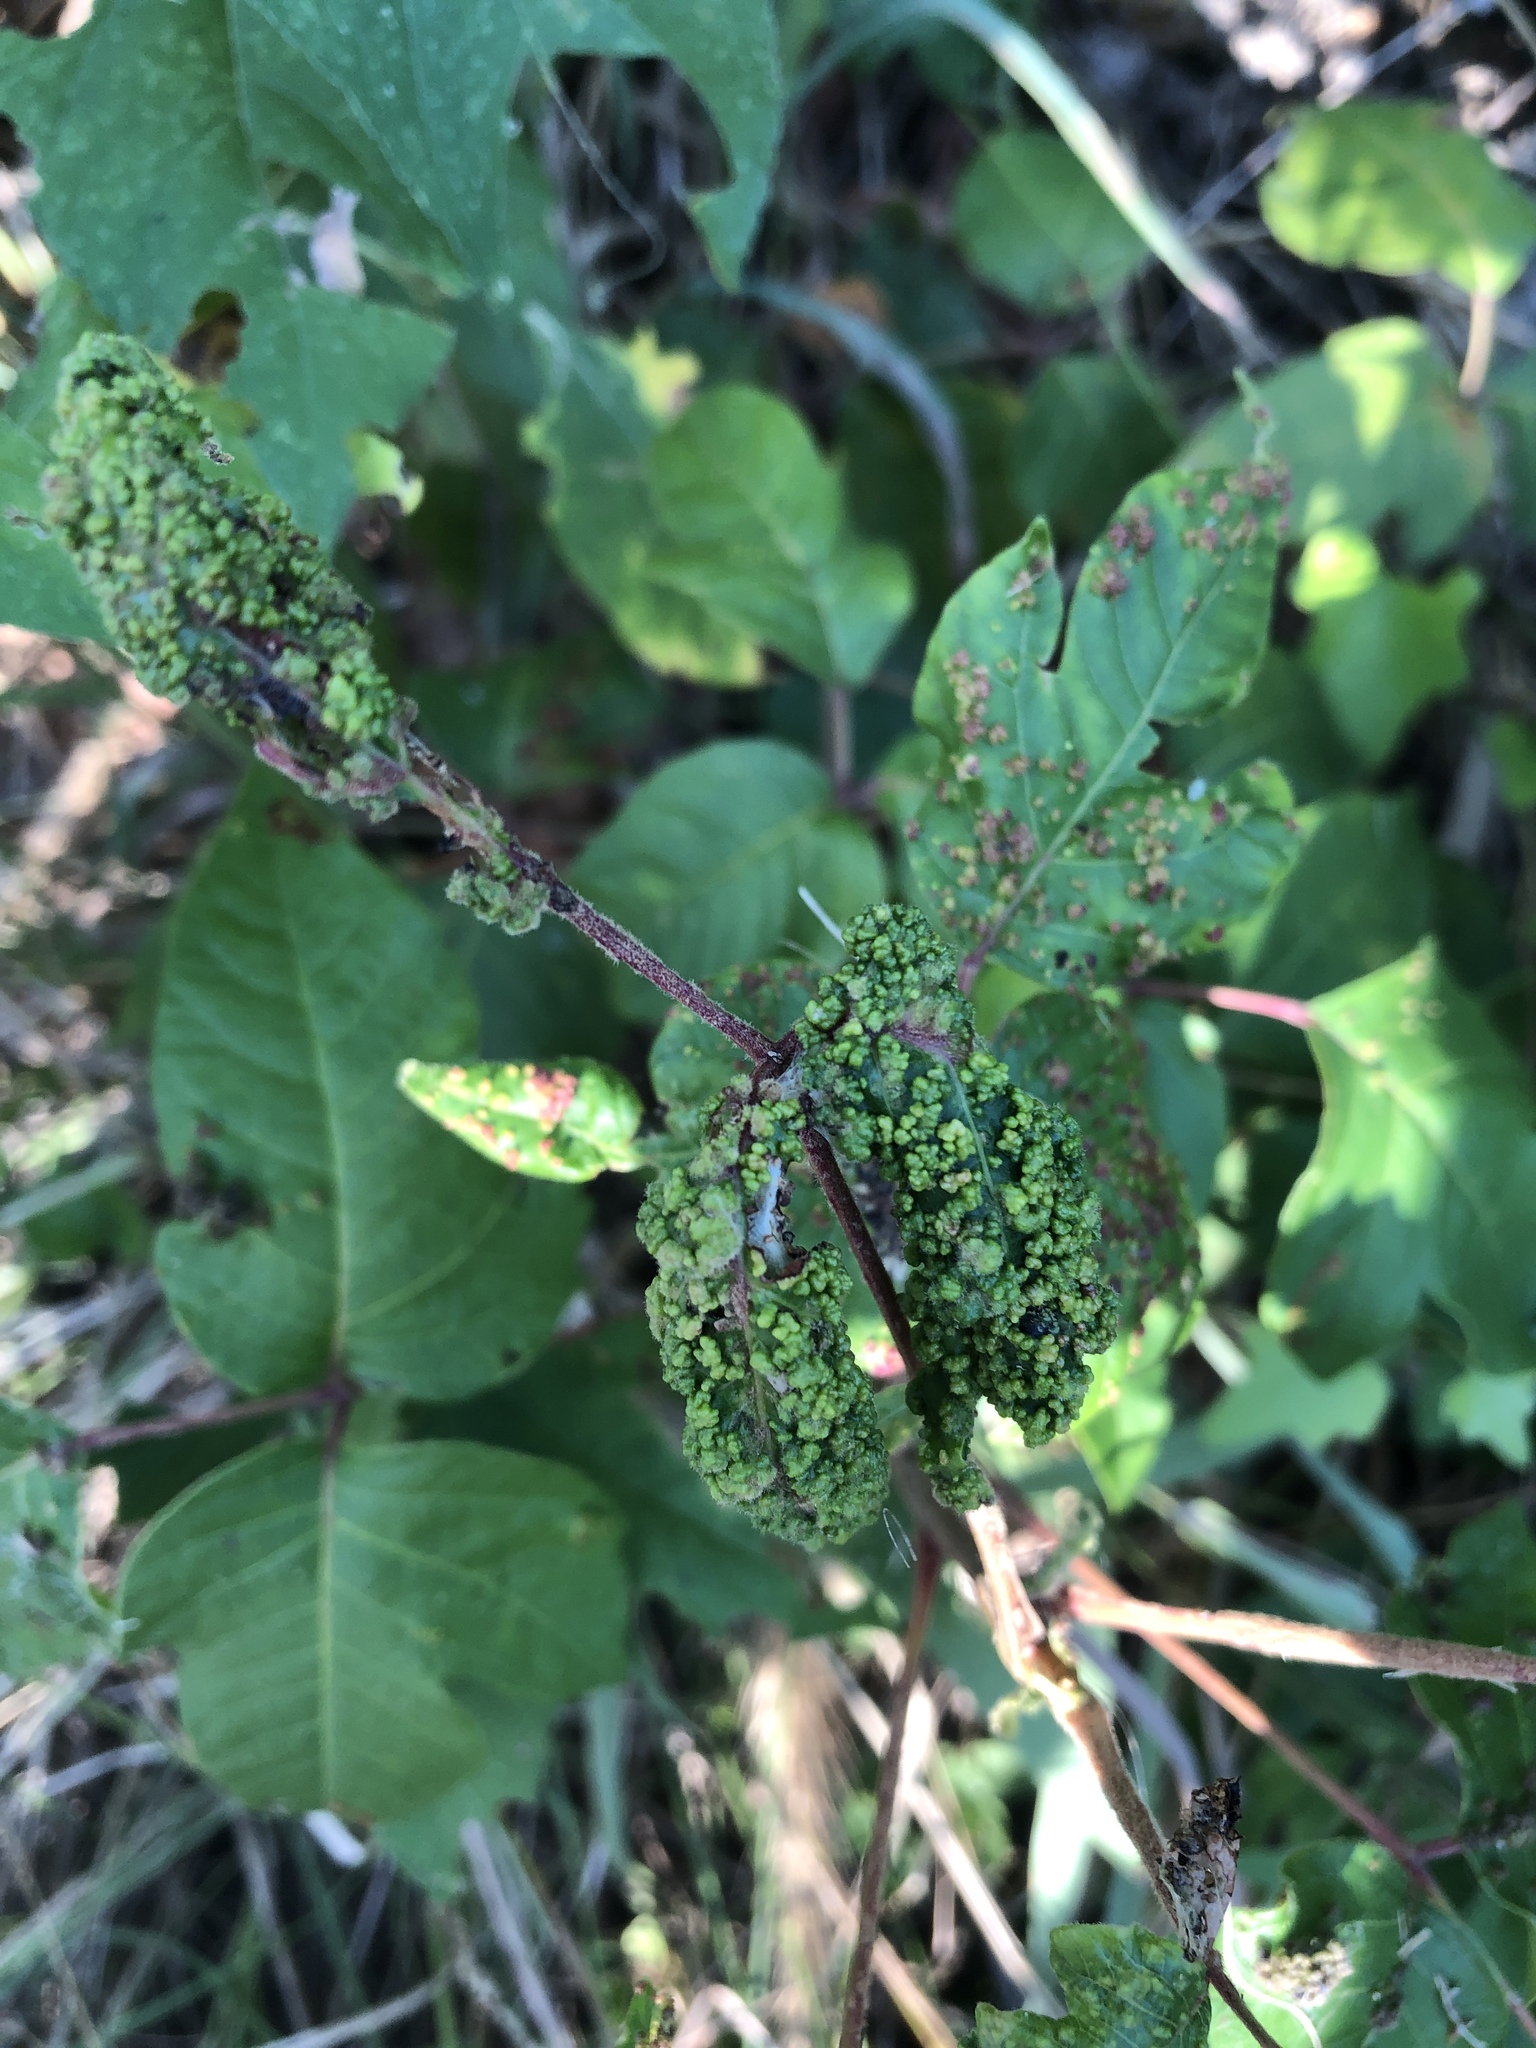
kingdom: Animalia
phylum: Arthropoda
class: Arachnida
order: Trombidiformes
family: Eriophyidae
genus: Aculops
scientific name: Aculops
